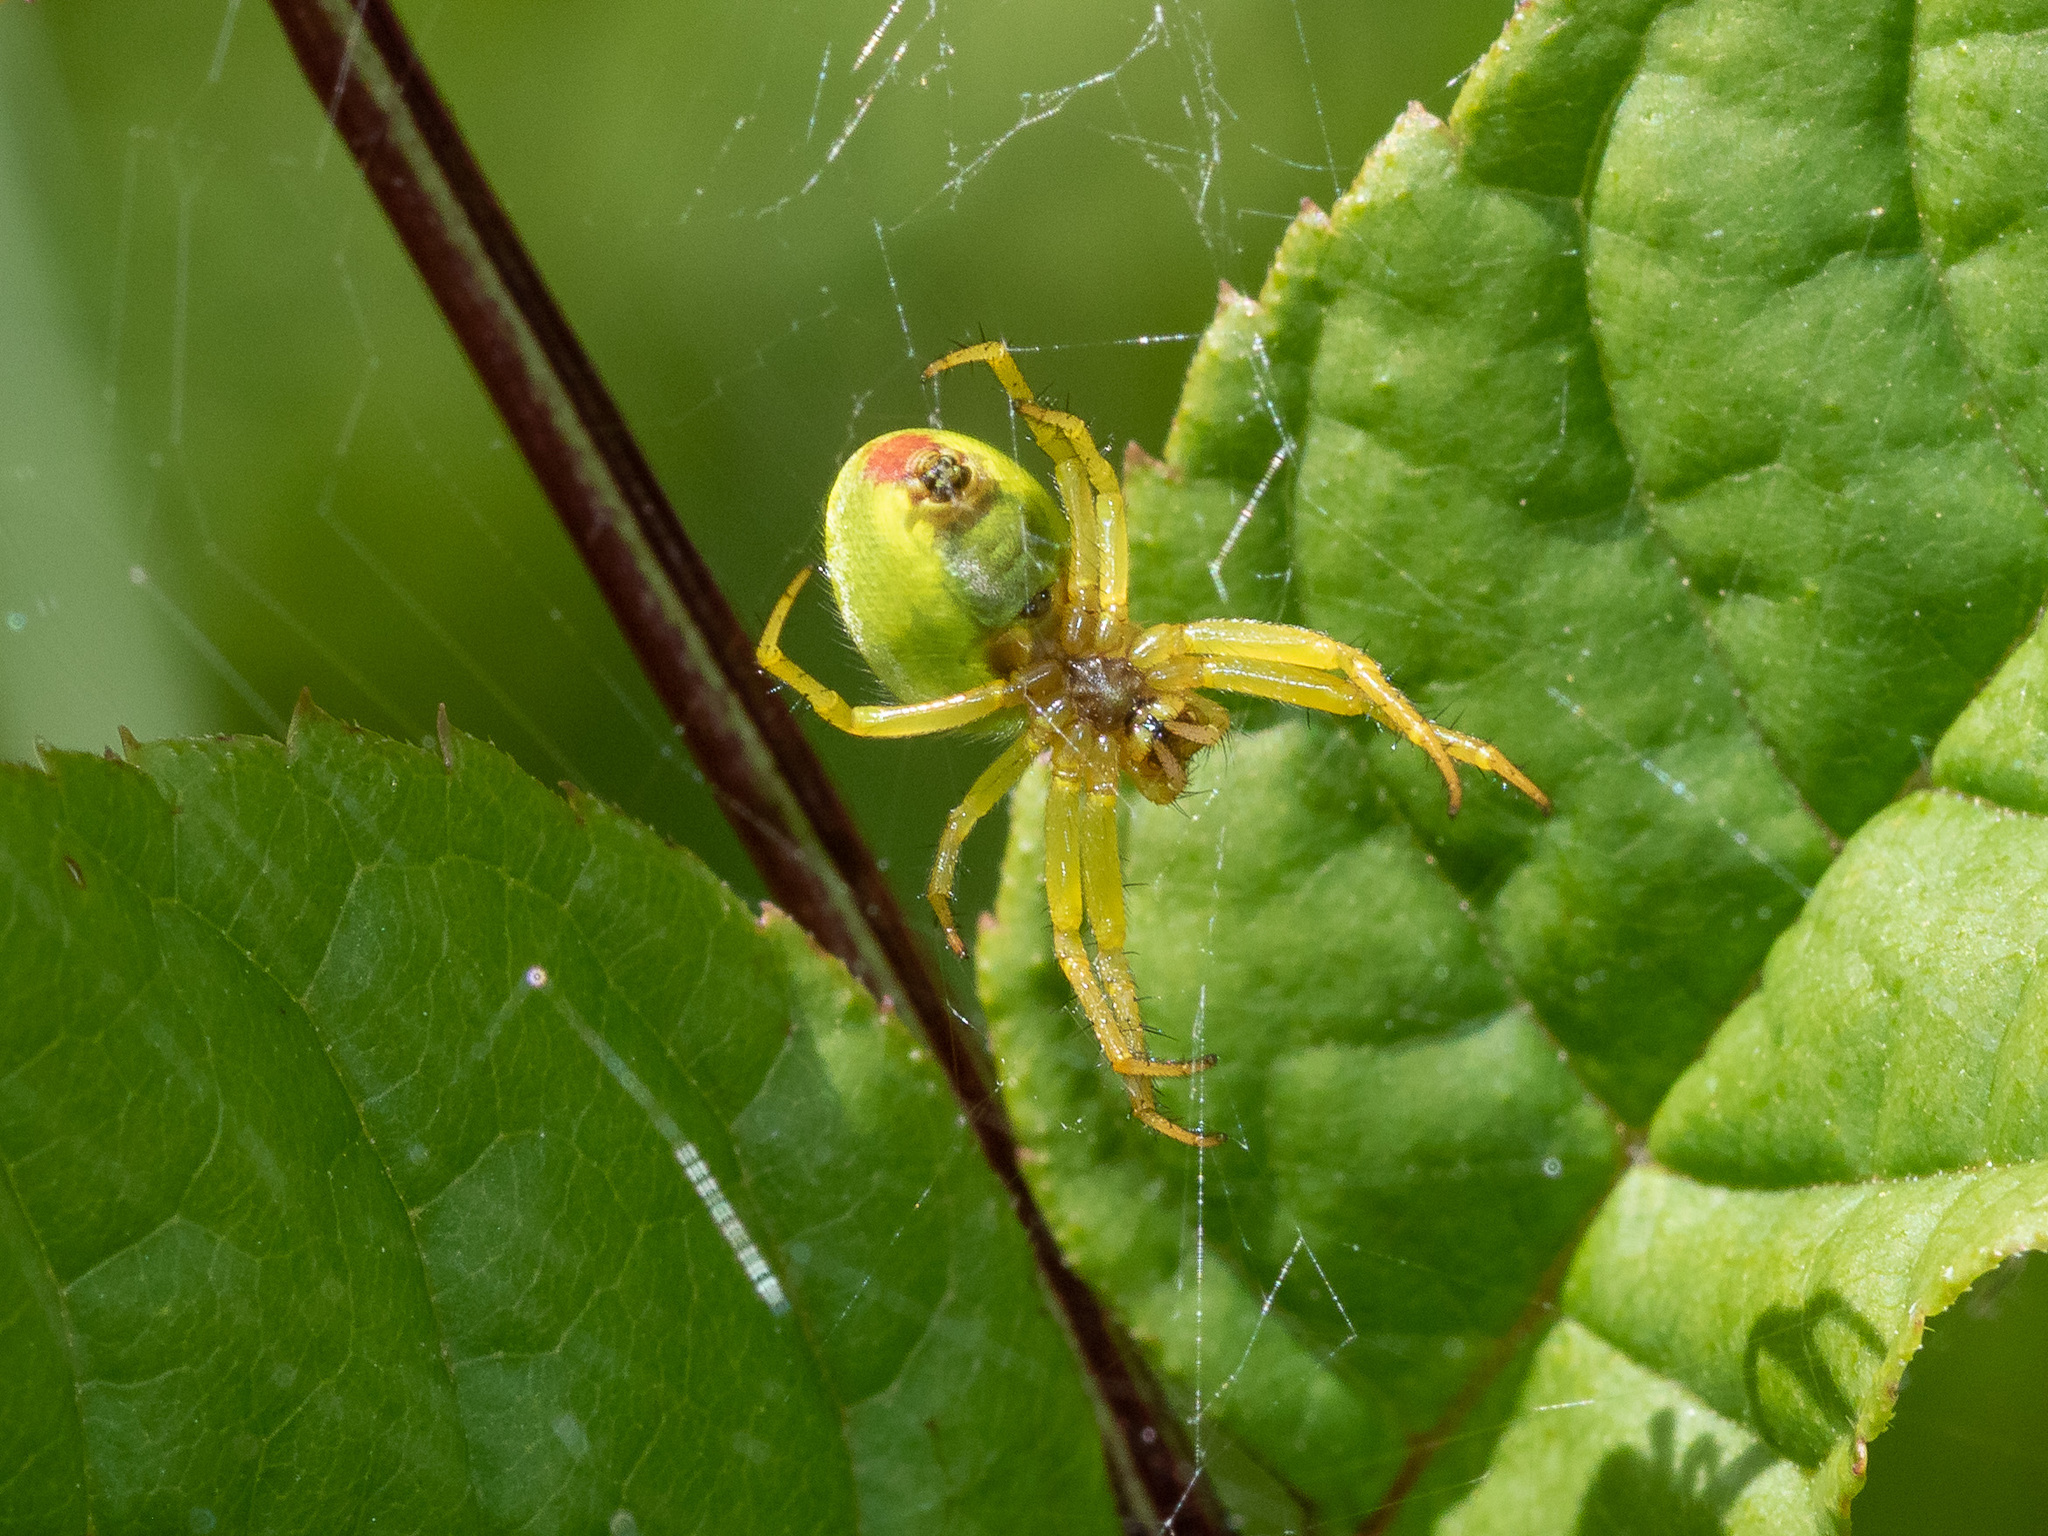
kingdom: Animalia
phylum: Arthropoda
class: Arachnida
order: Araneae
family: Araneidae
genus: Araniella
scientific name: Araniella cucurbitina
